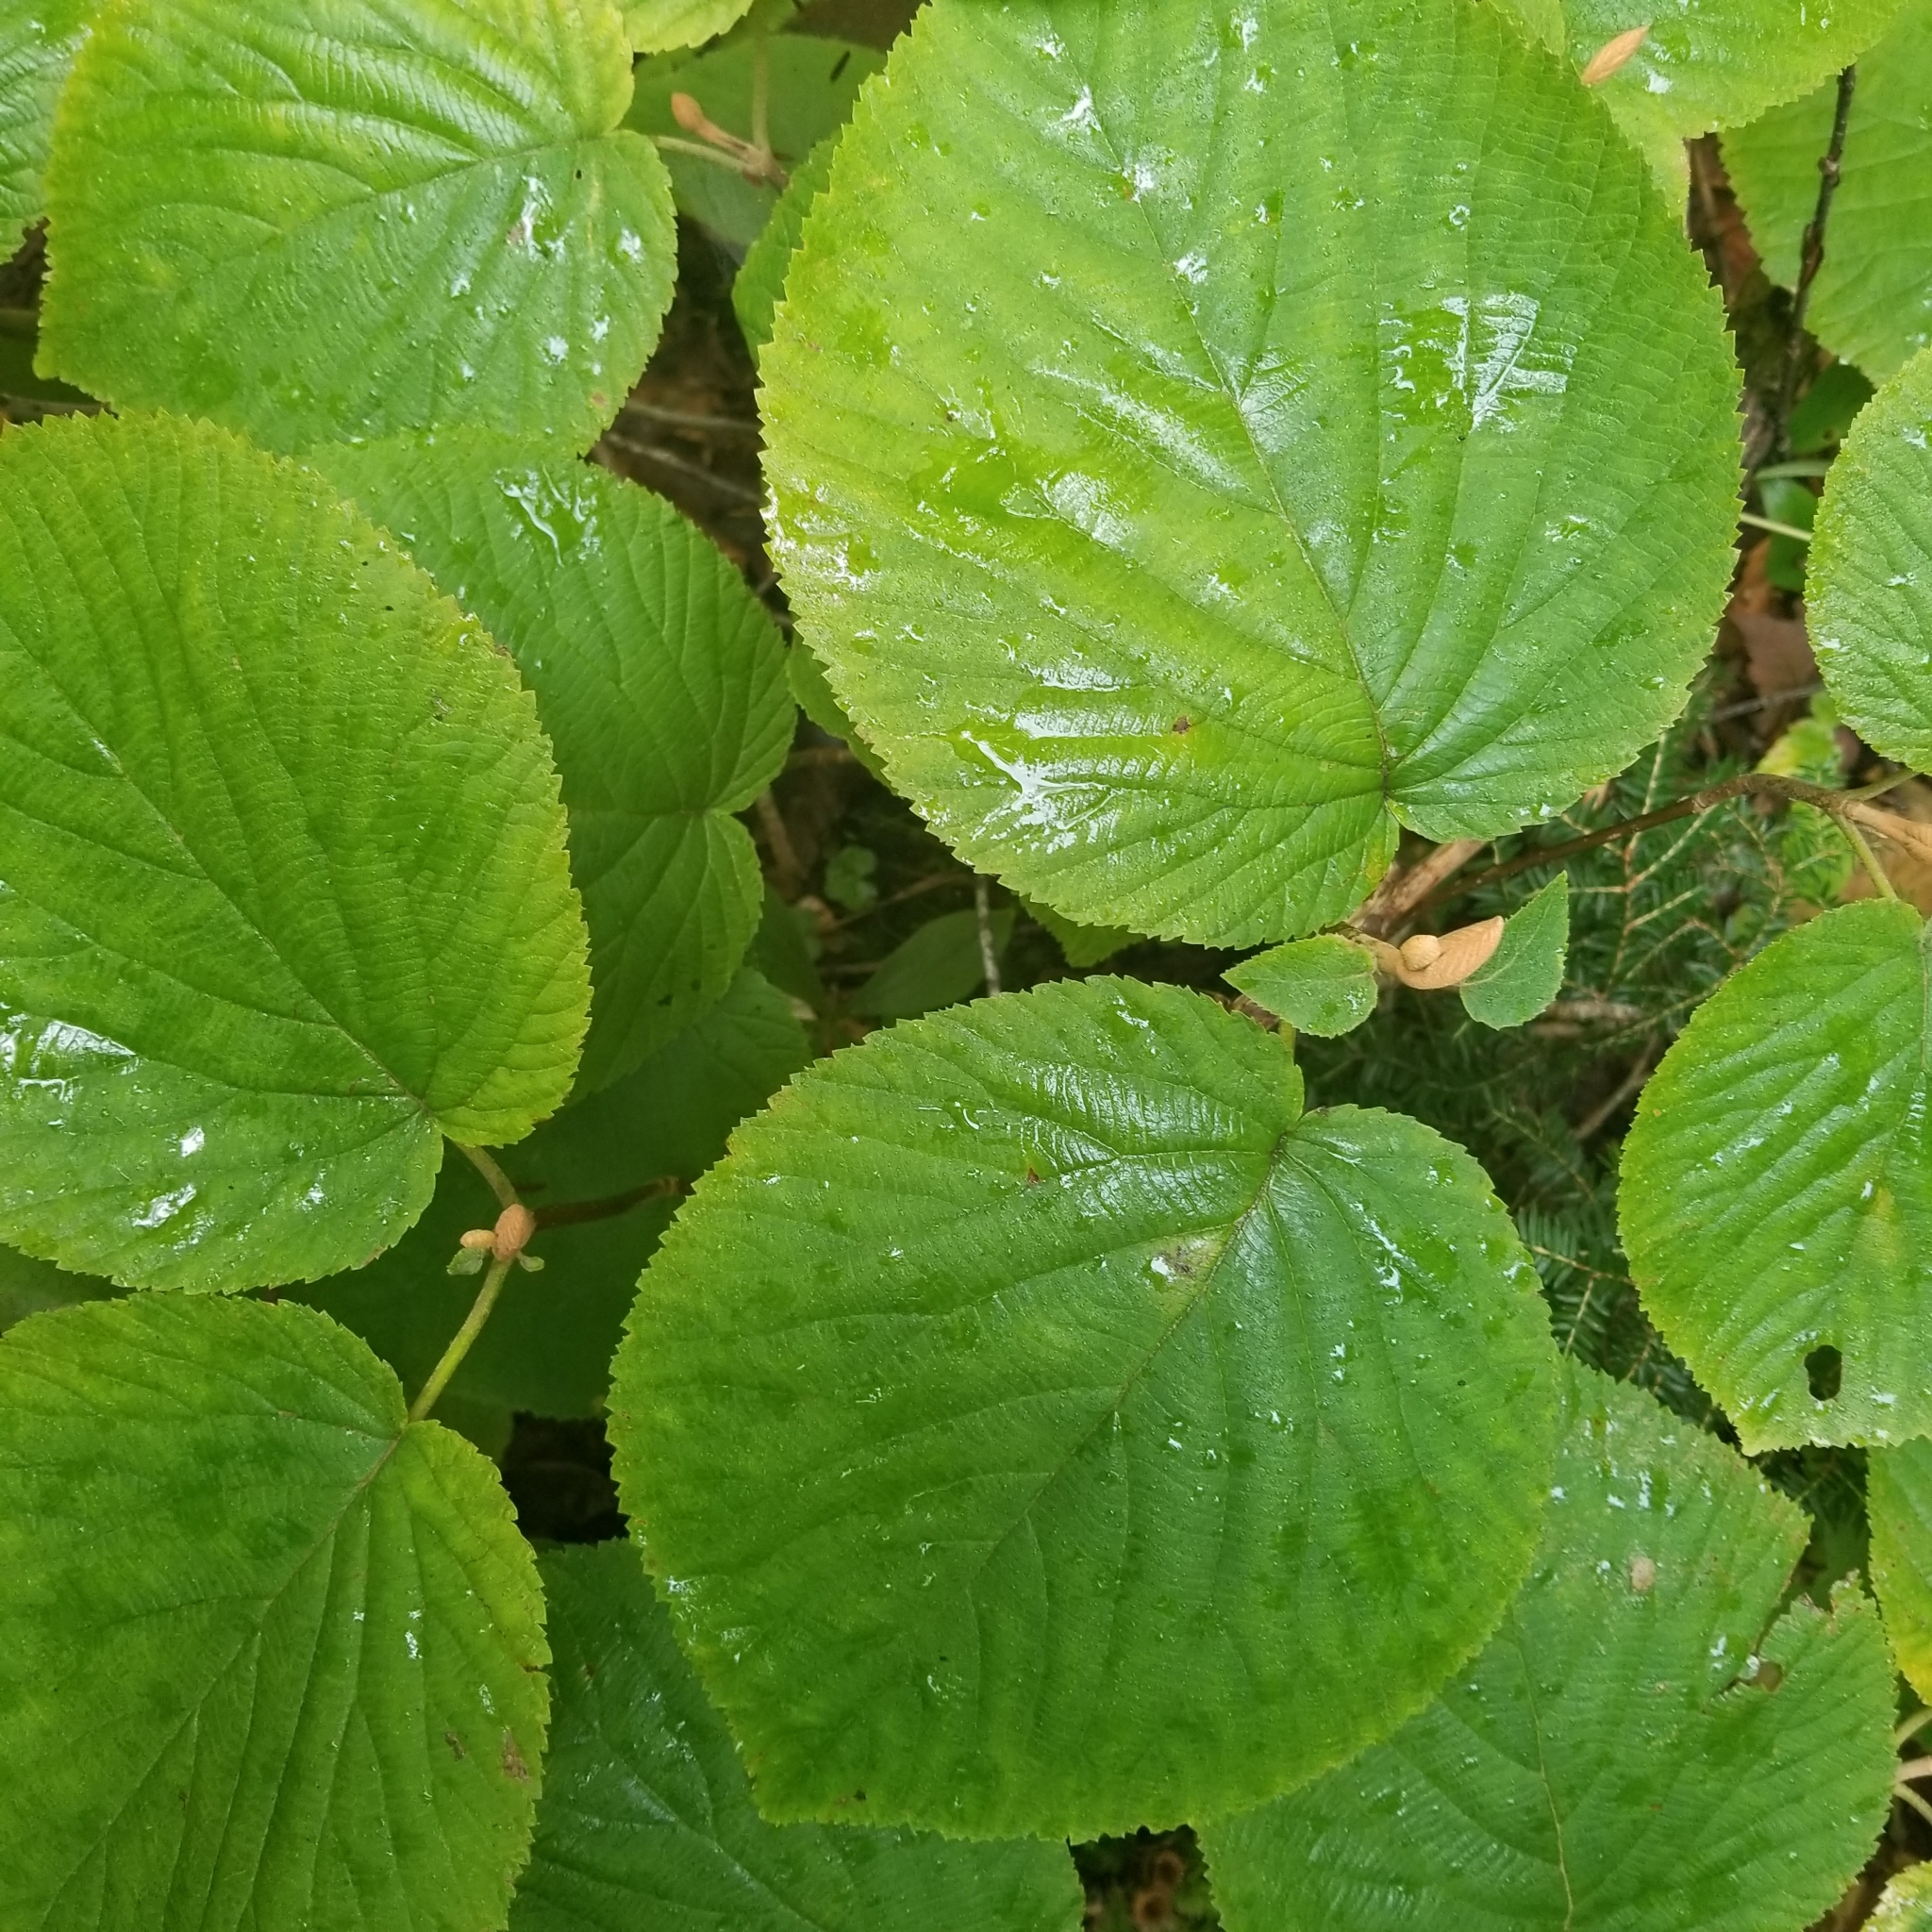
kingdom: Plantae
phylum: Tracheophyta
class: Magnoliopsida
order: Dipsacales
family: Viburnaceae
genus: Viburnum
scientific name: Viburnum lantanoides
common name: Hobblebush
